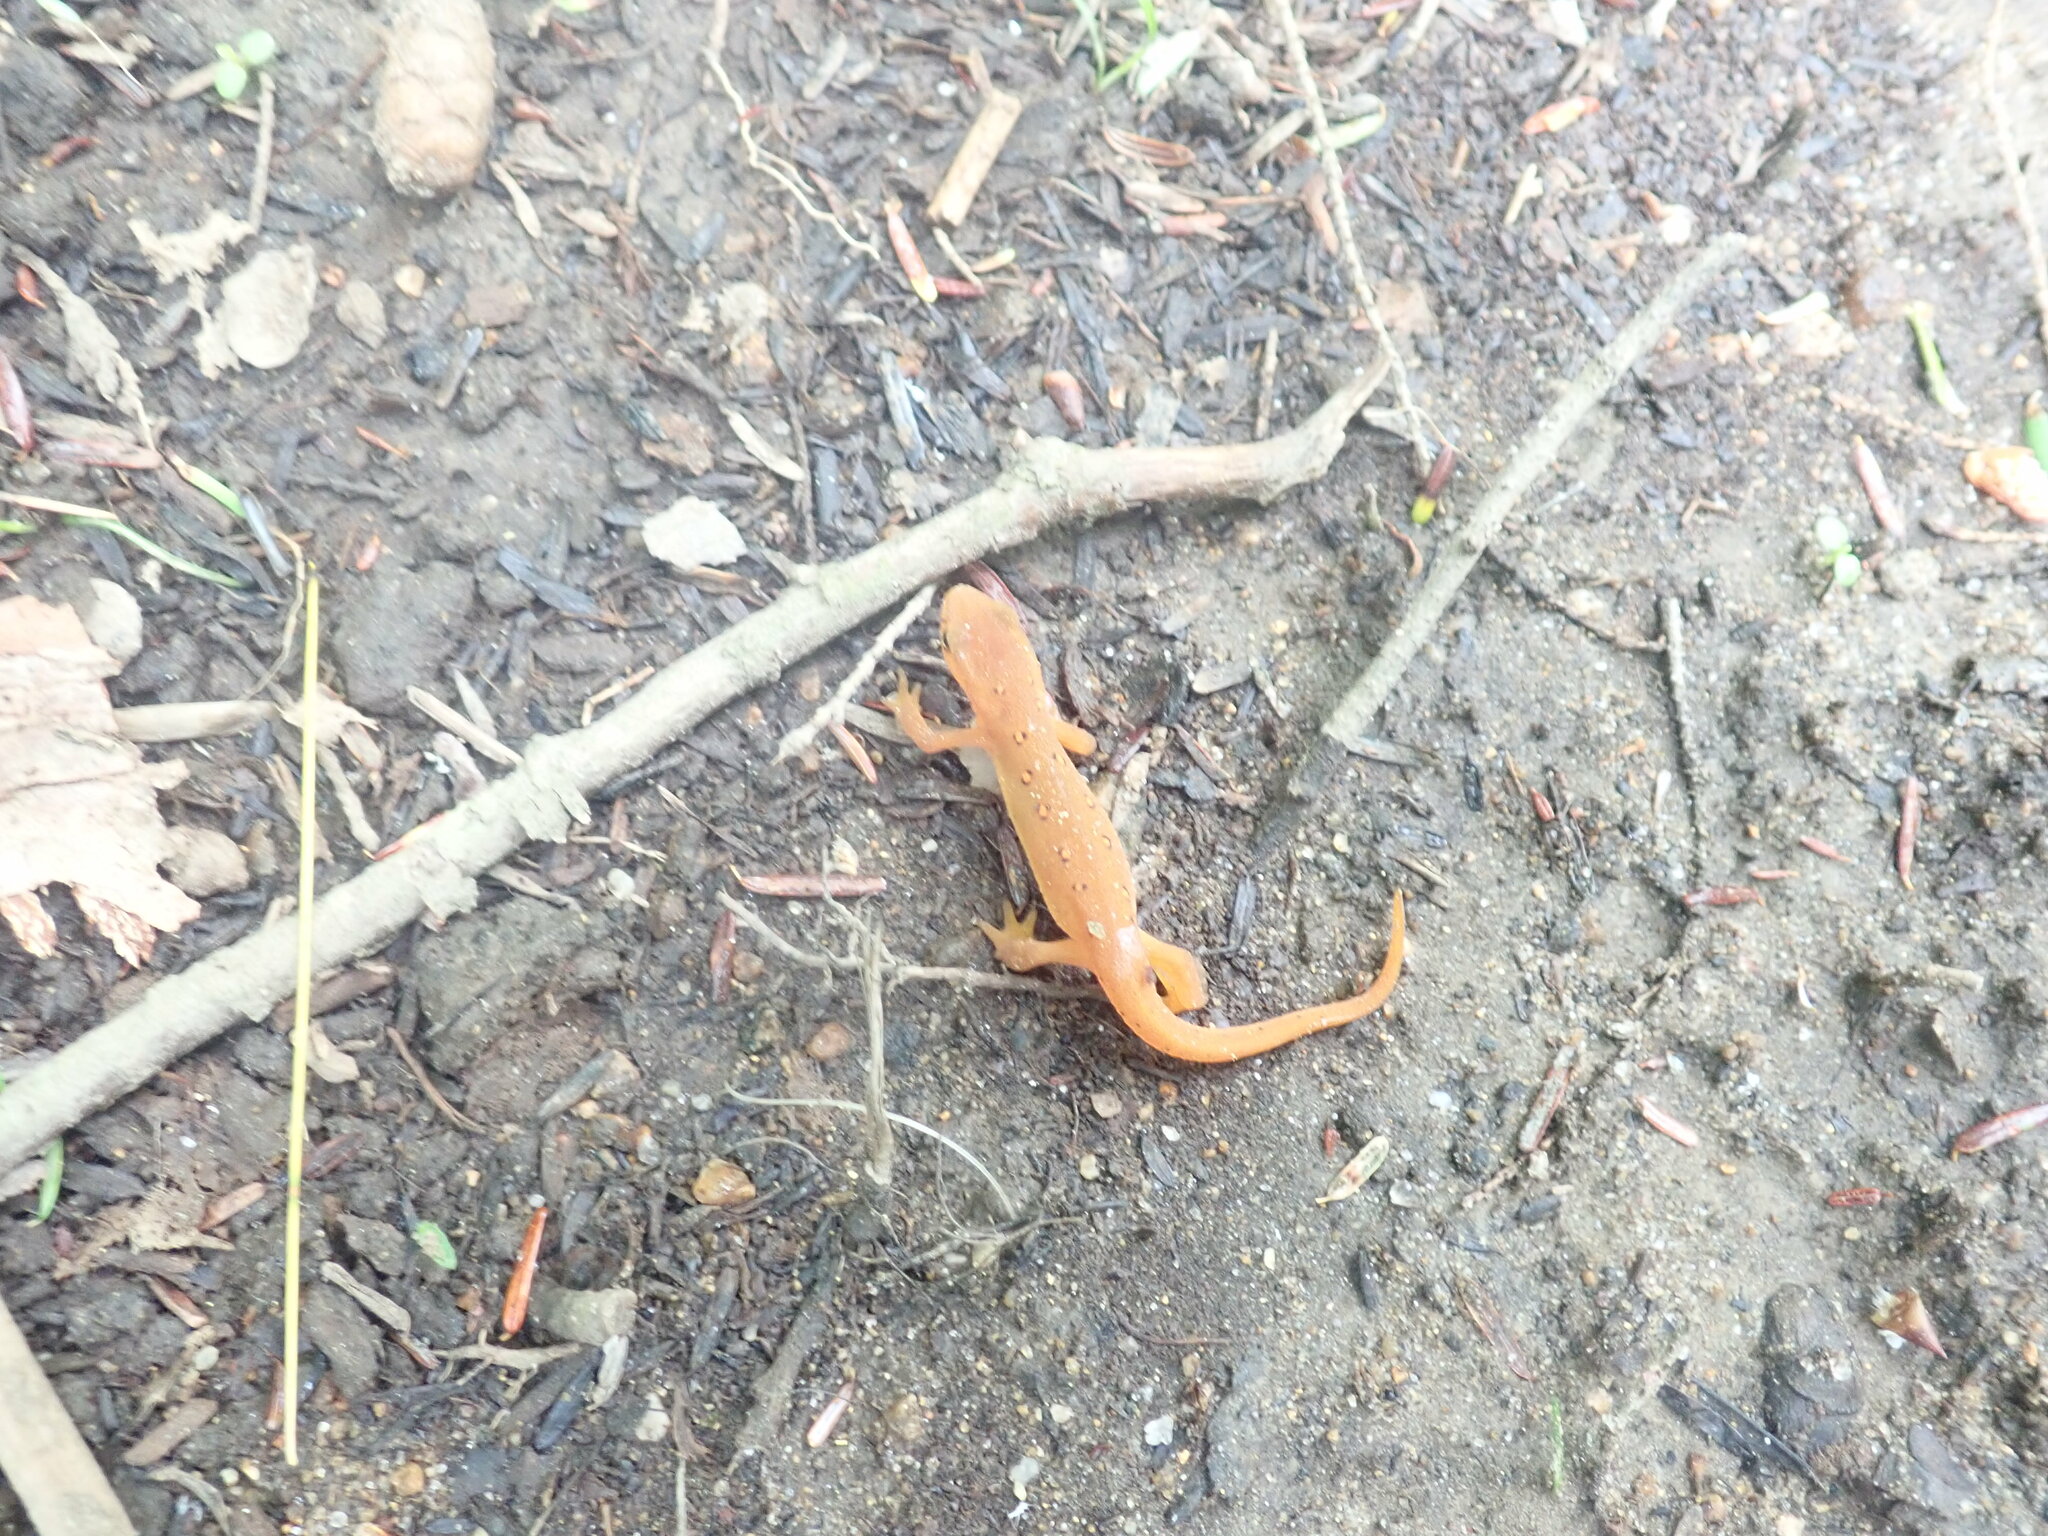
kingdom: Animalia
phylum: Chordata
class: Amphibia
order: Caudata
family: Salamandridae
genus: Notophthalmus
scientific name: Notophthalmus viridescens
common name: Eastern newt
